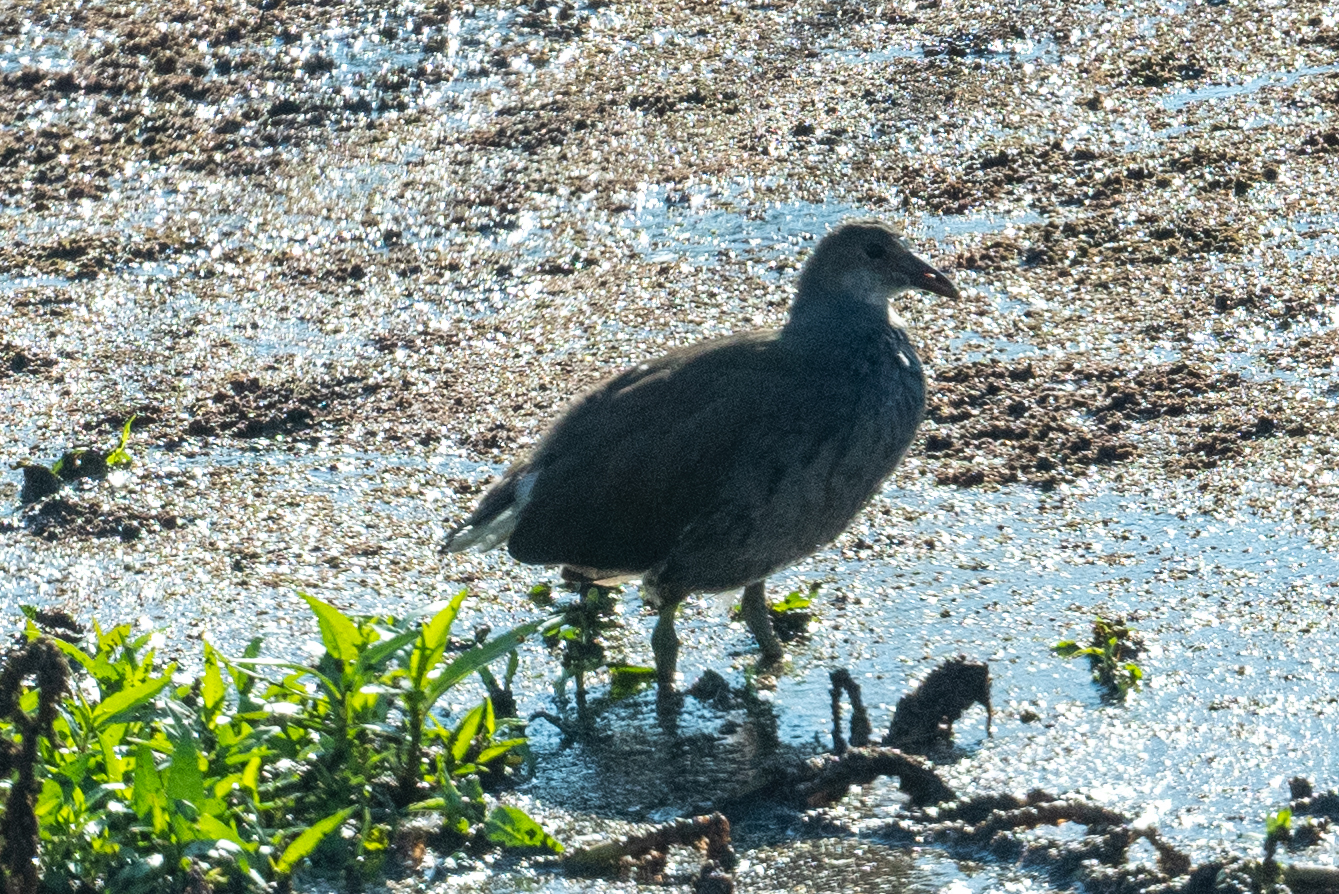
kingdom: Animalia
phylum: Chordata
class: Aves
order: Gruiformes
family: Rallidae
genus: Gallinula
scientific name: Gallinula chloropus
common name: Common moorhen
